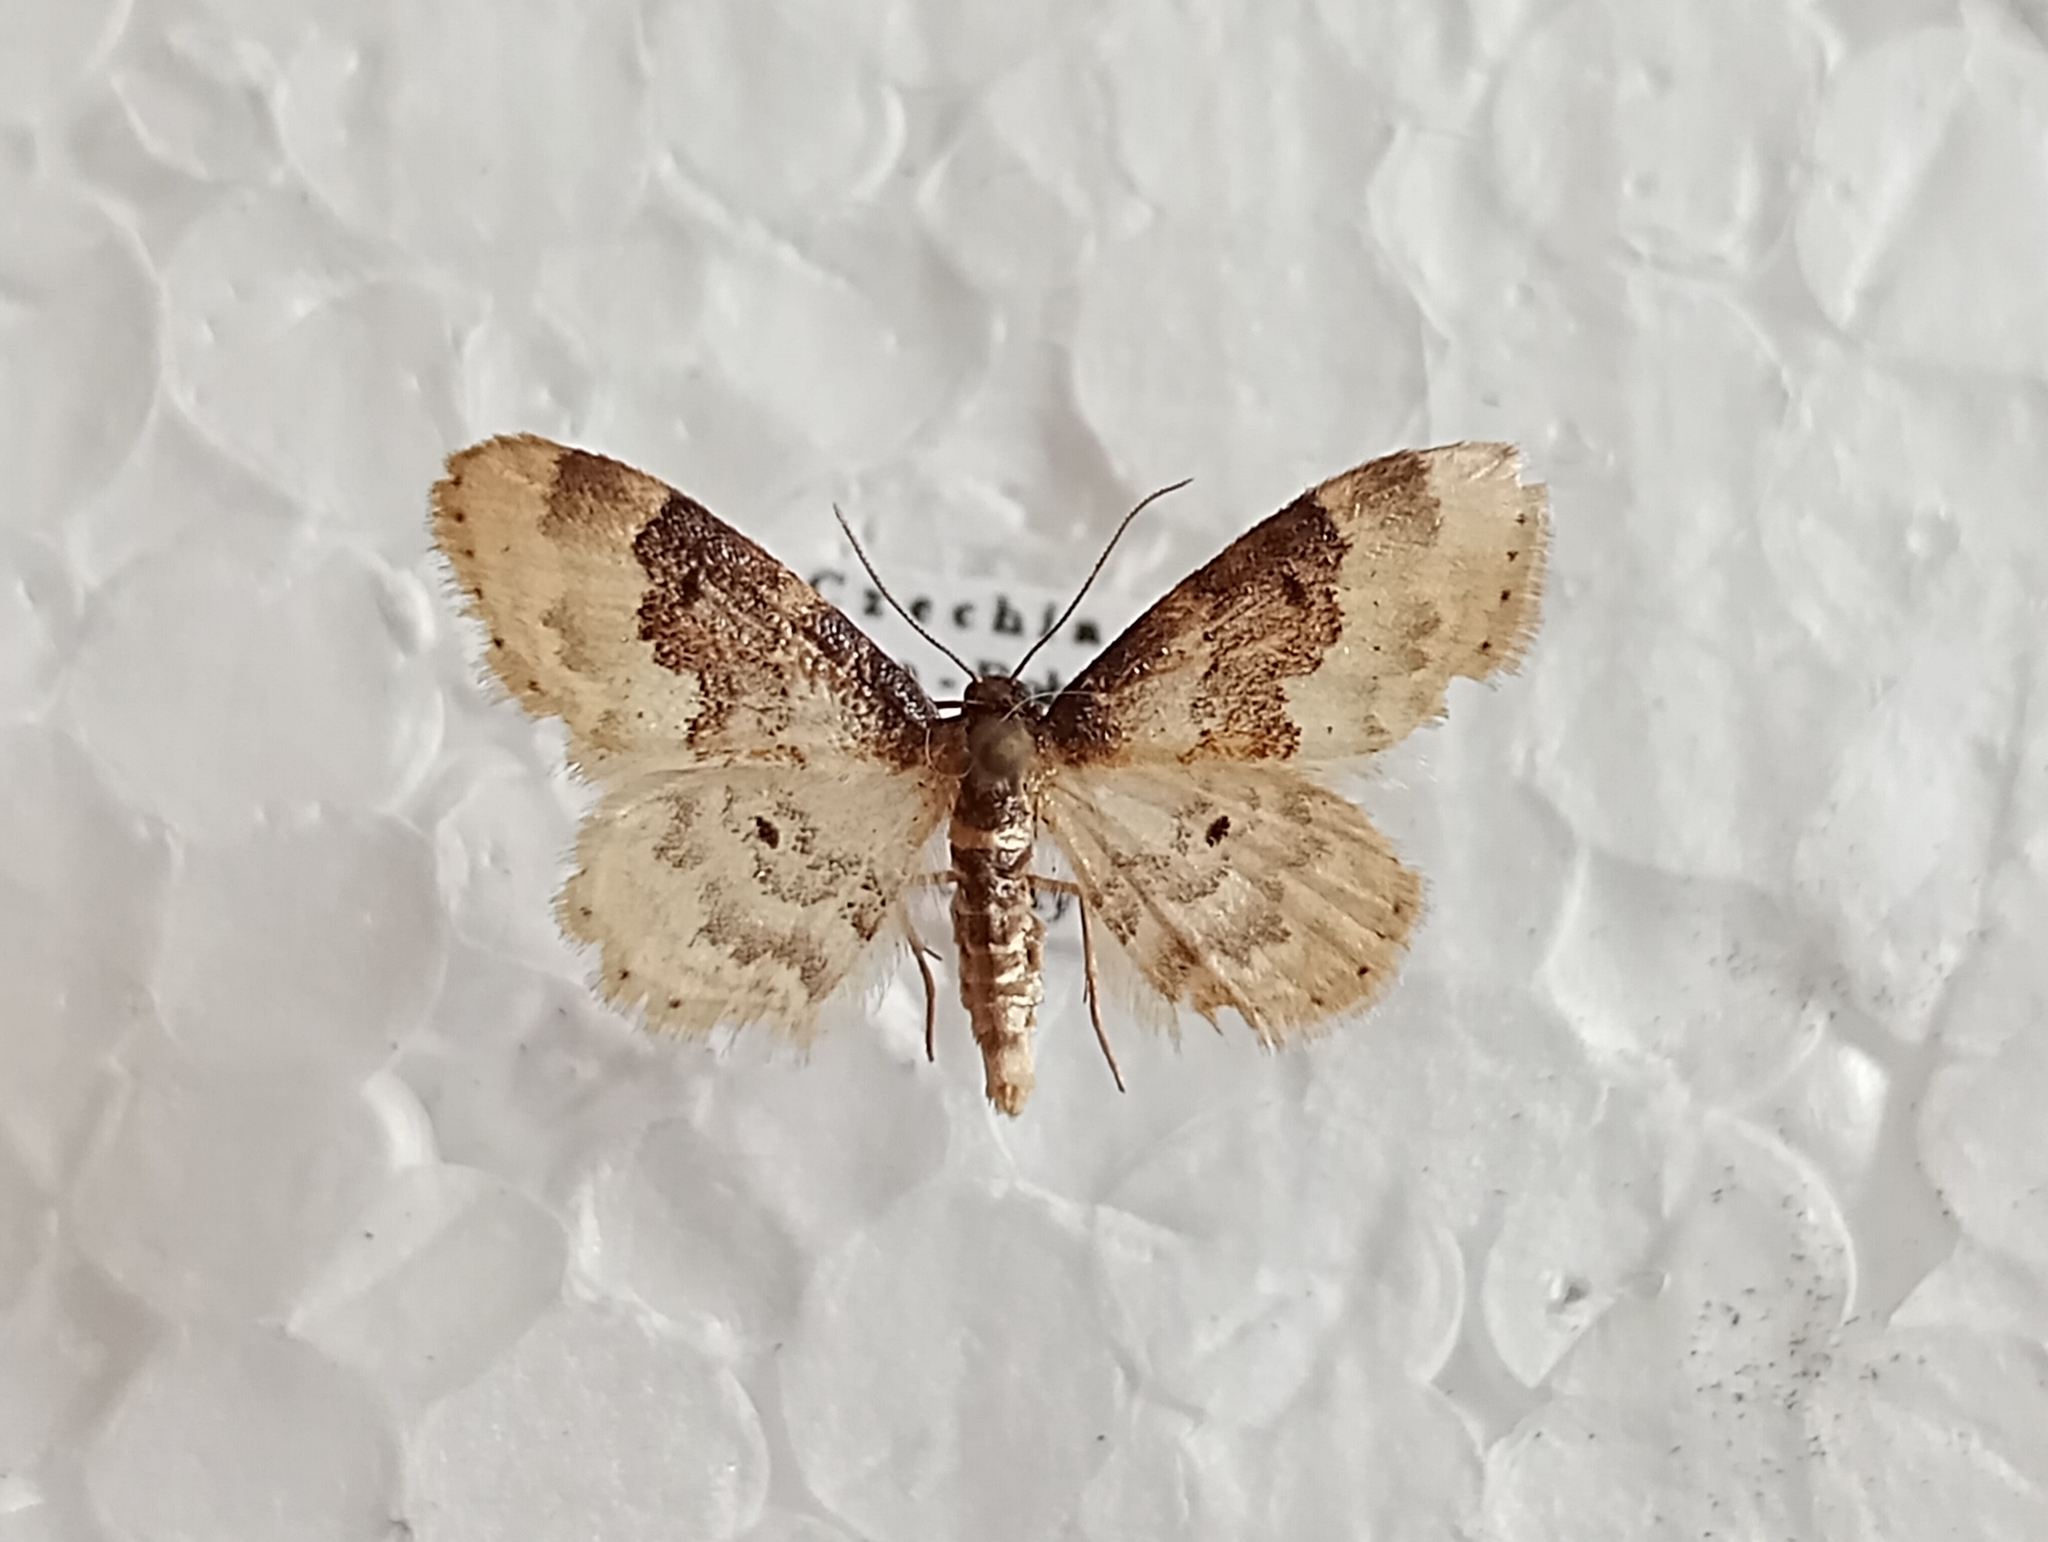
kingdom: Animalia
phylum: Arthropoda
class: Insecta
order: Lepidoptera
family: Geometridae
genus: Idaea
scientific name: Idaea rusticata
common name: Least carpet
